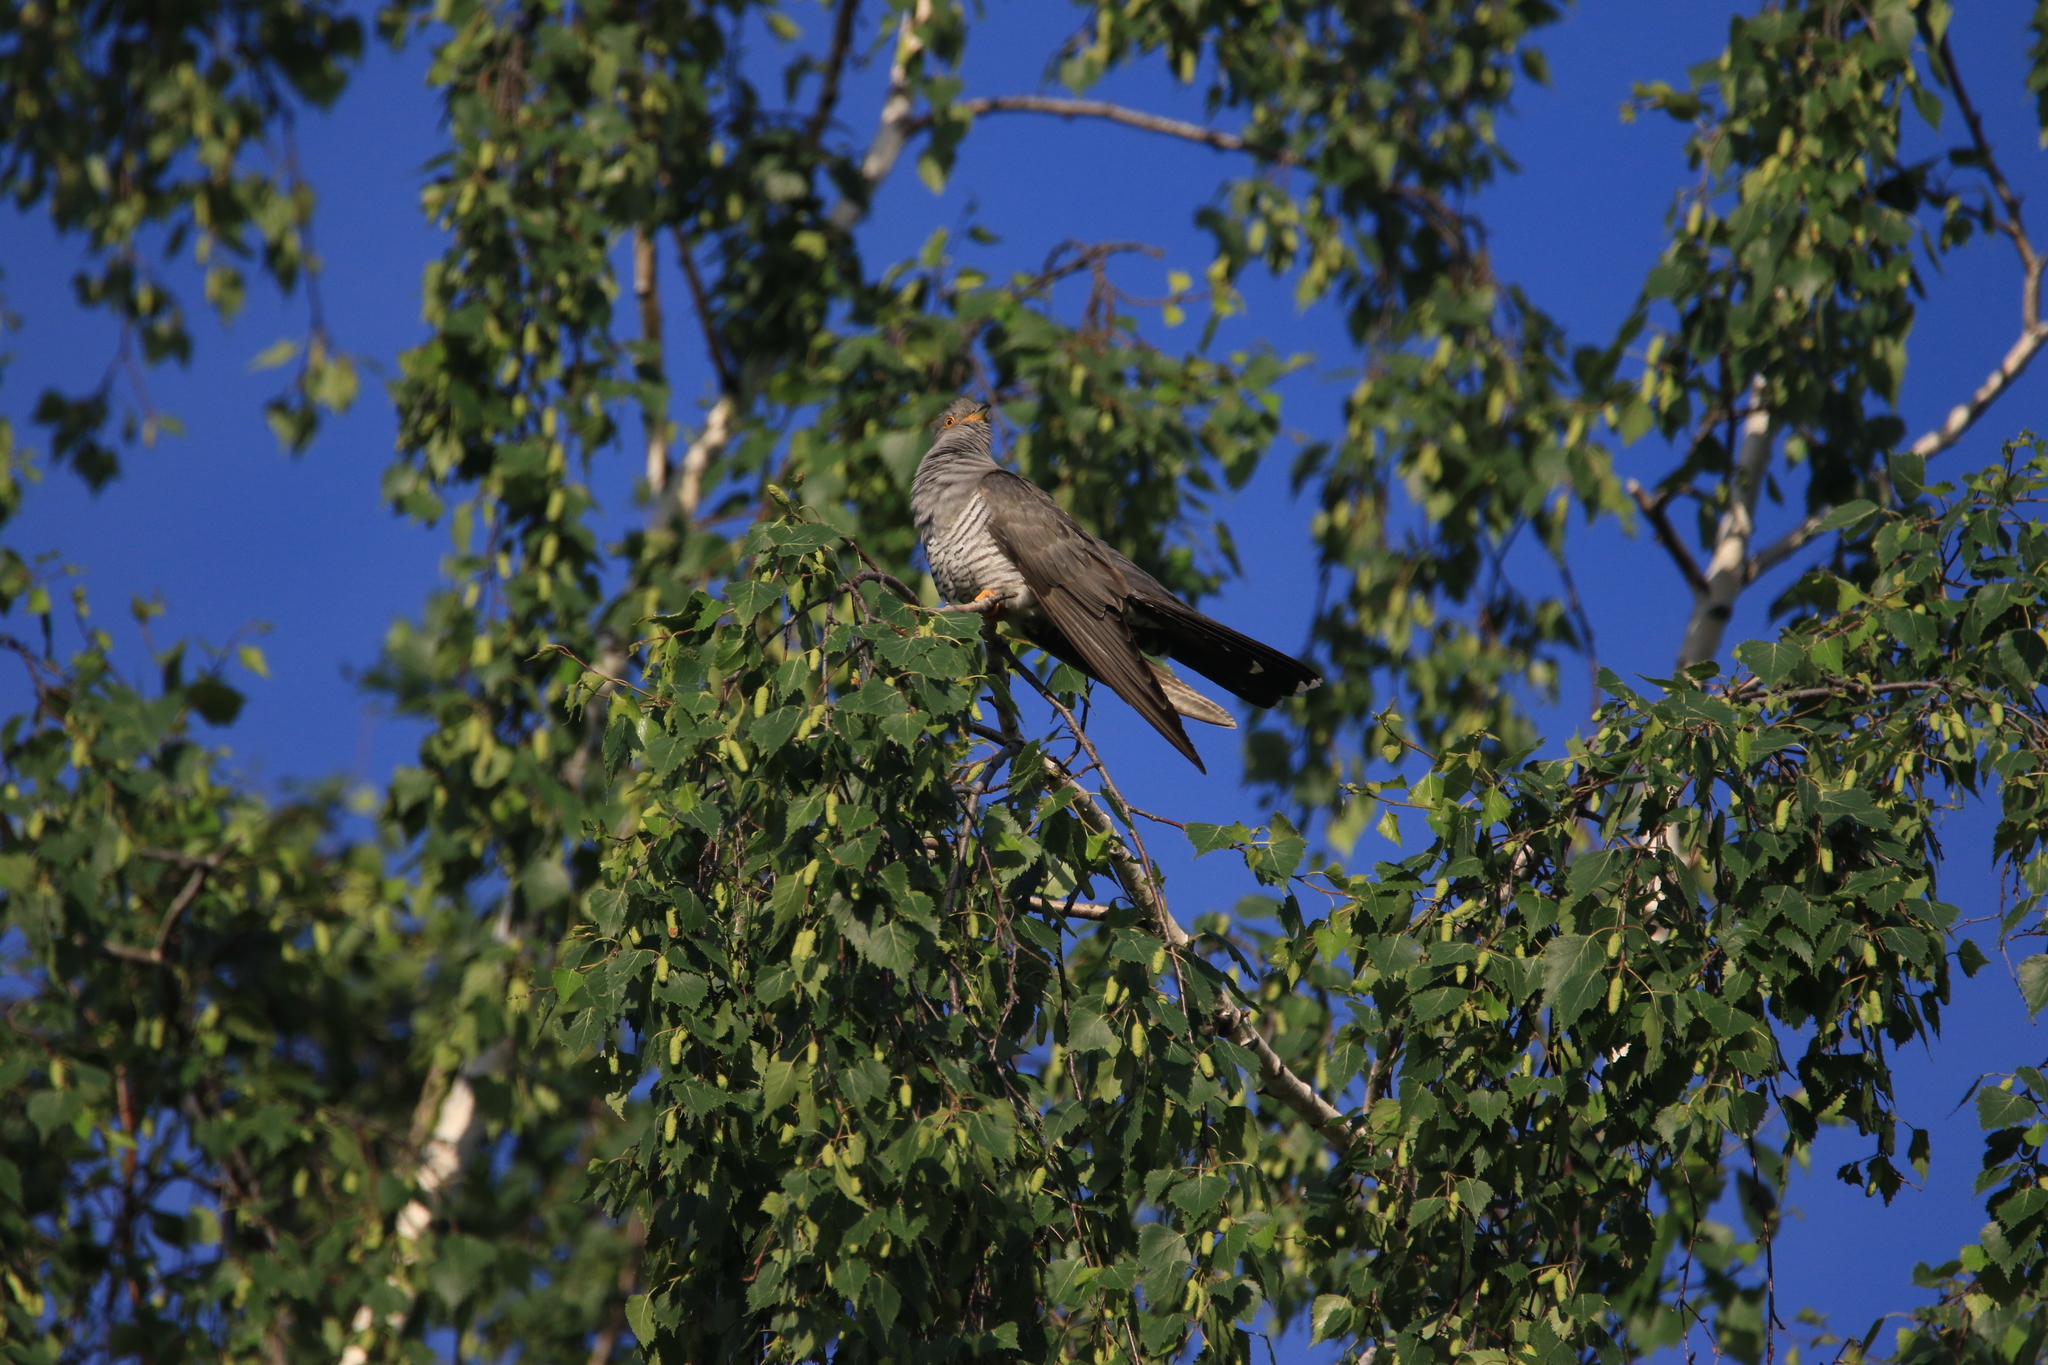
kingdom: Animalia
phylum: Chordata
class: Aves
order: Cuculiformes
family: Cuculidae
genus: Cuculus
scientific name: Cuculus canorus
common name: Common cuckoo
